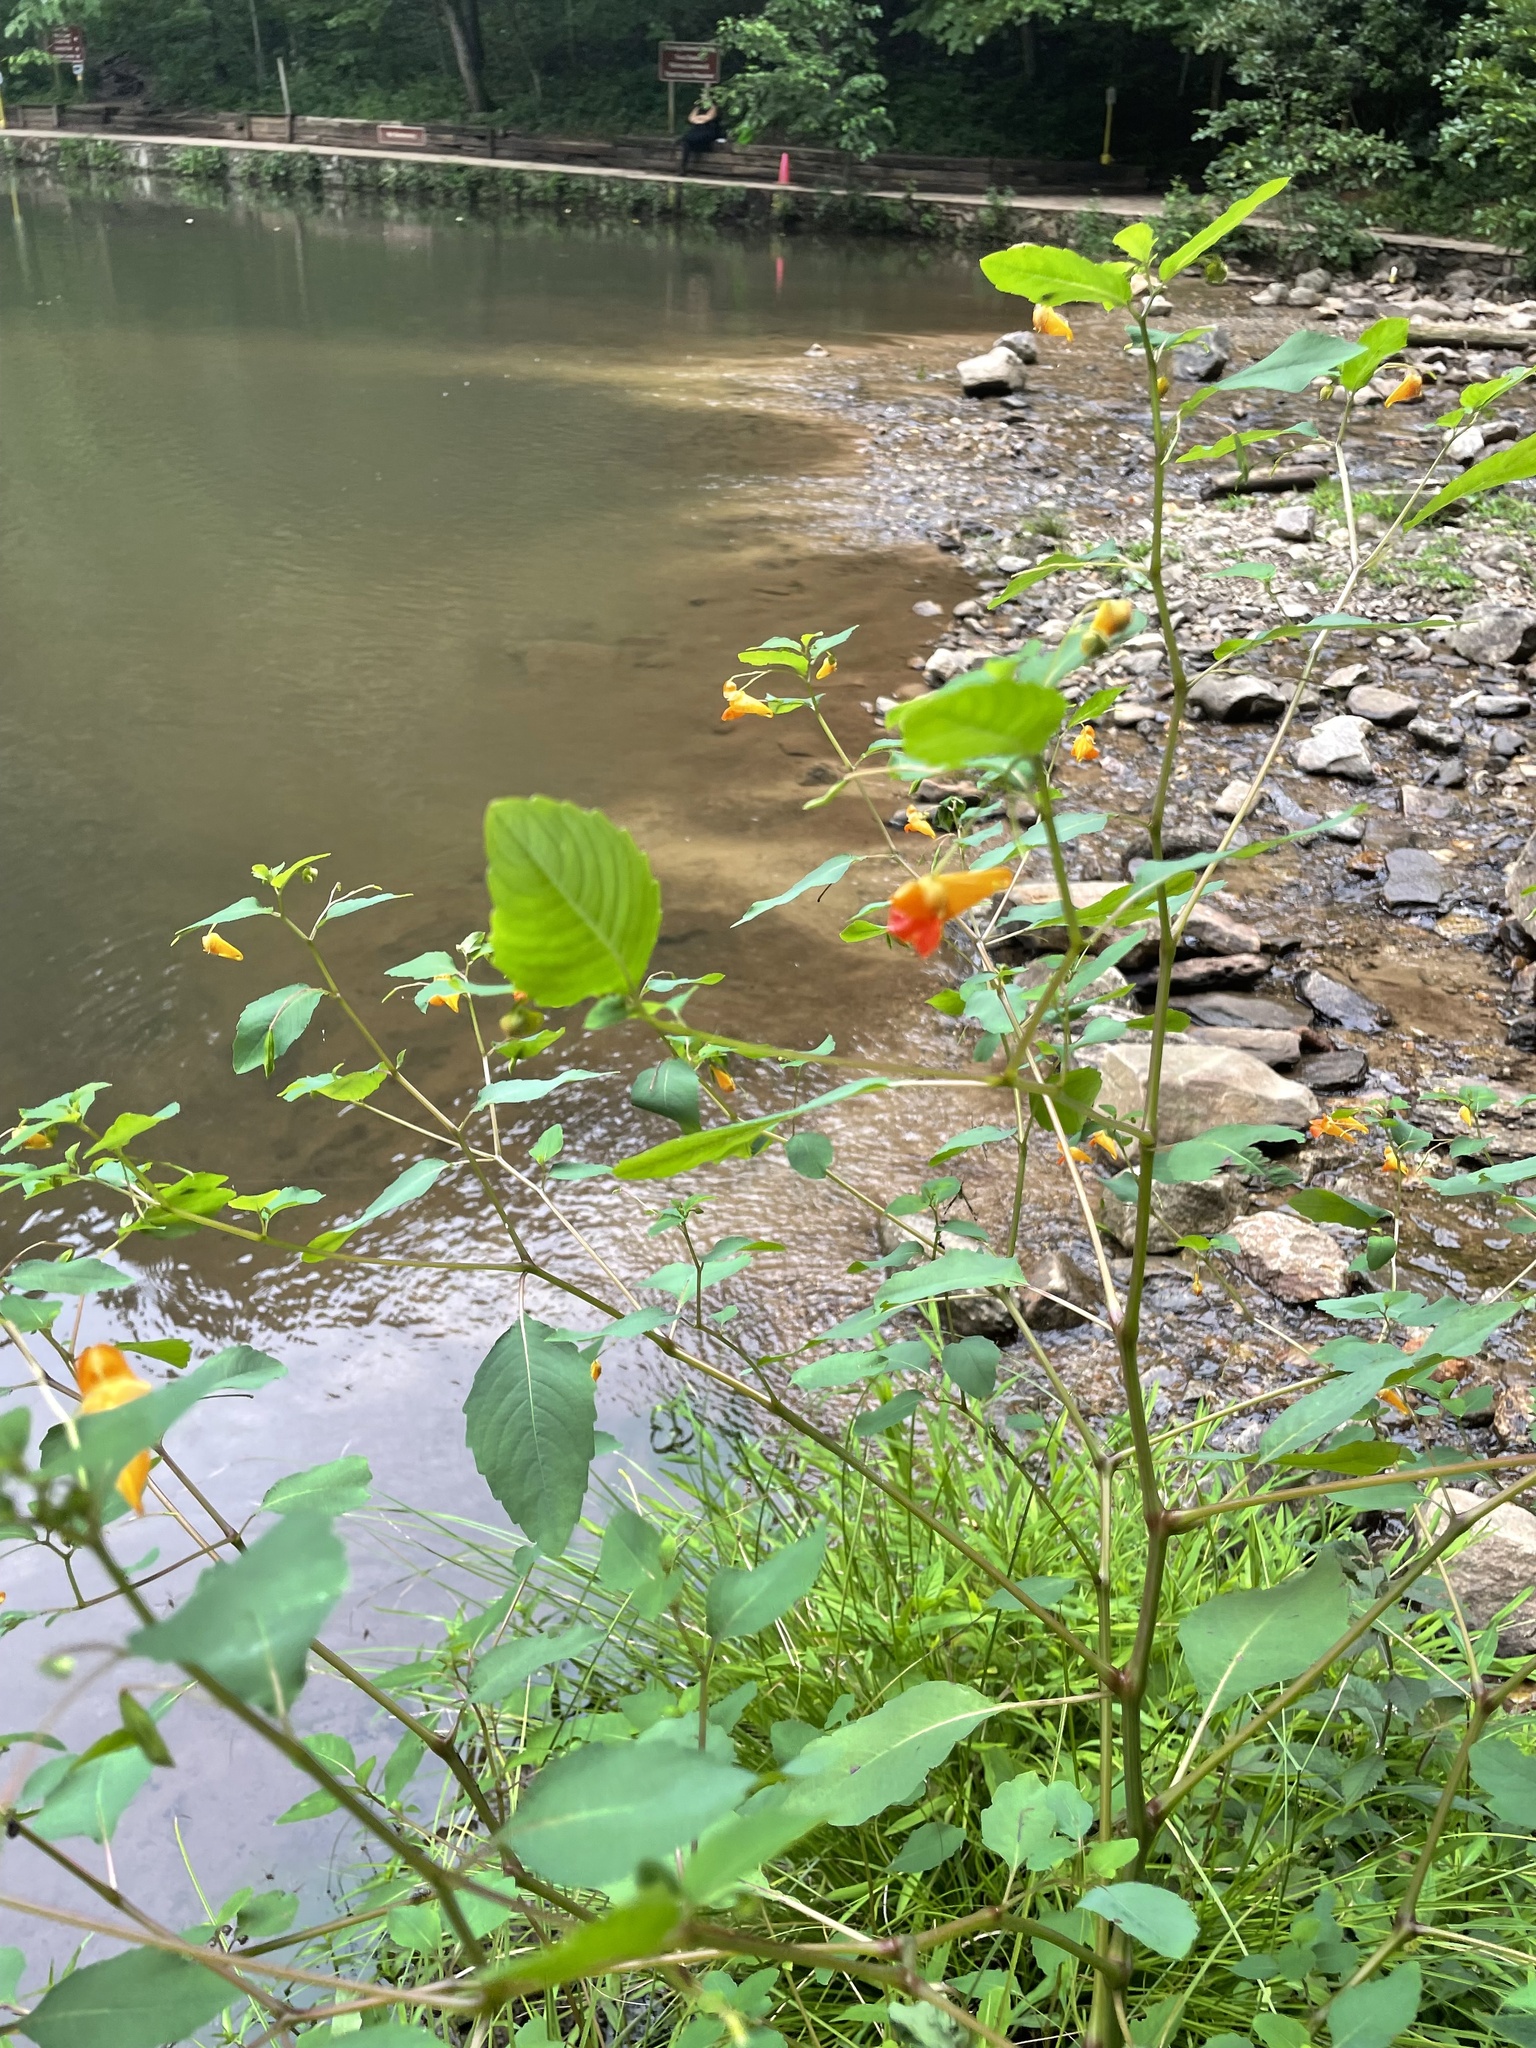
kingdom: Plantae
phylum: Tracheophyta
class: Magnoliopsida
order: Ericales
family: Balsaminaceae
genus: Impatiens
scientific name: Impatiens capensis
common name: Orange balsam
